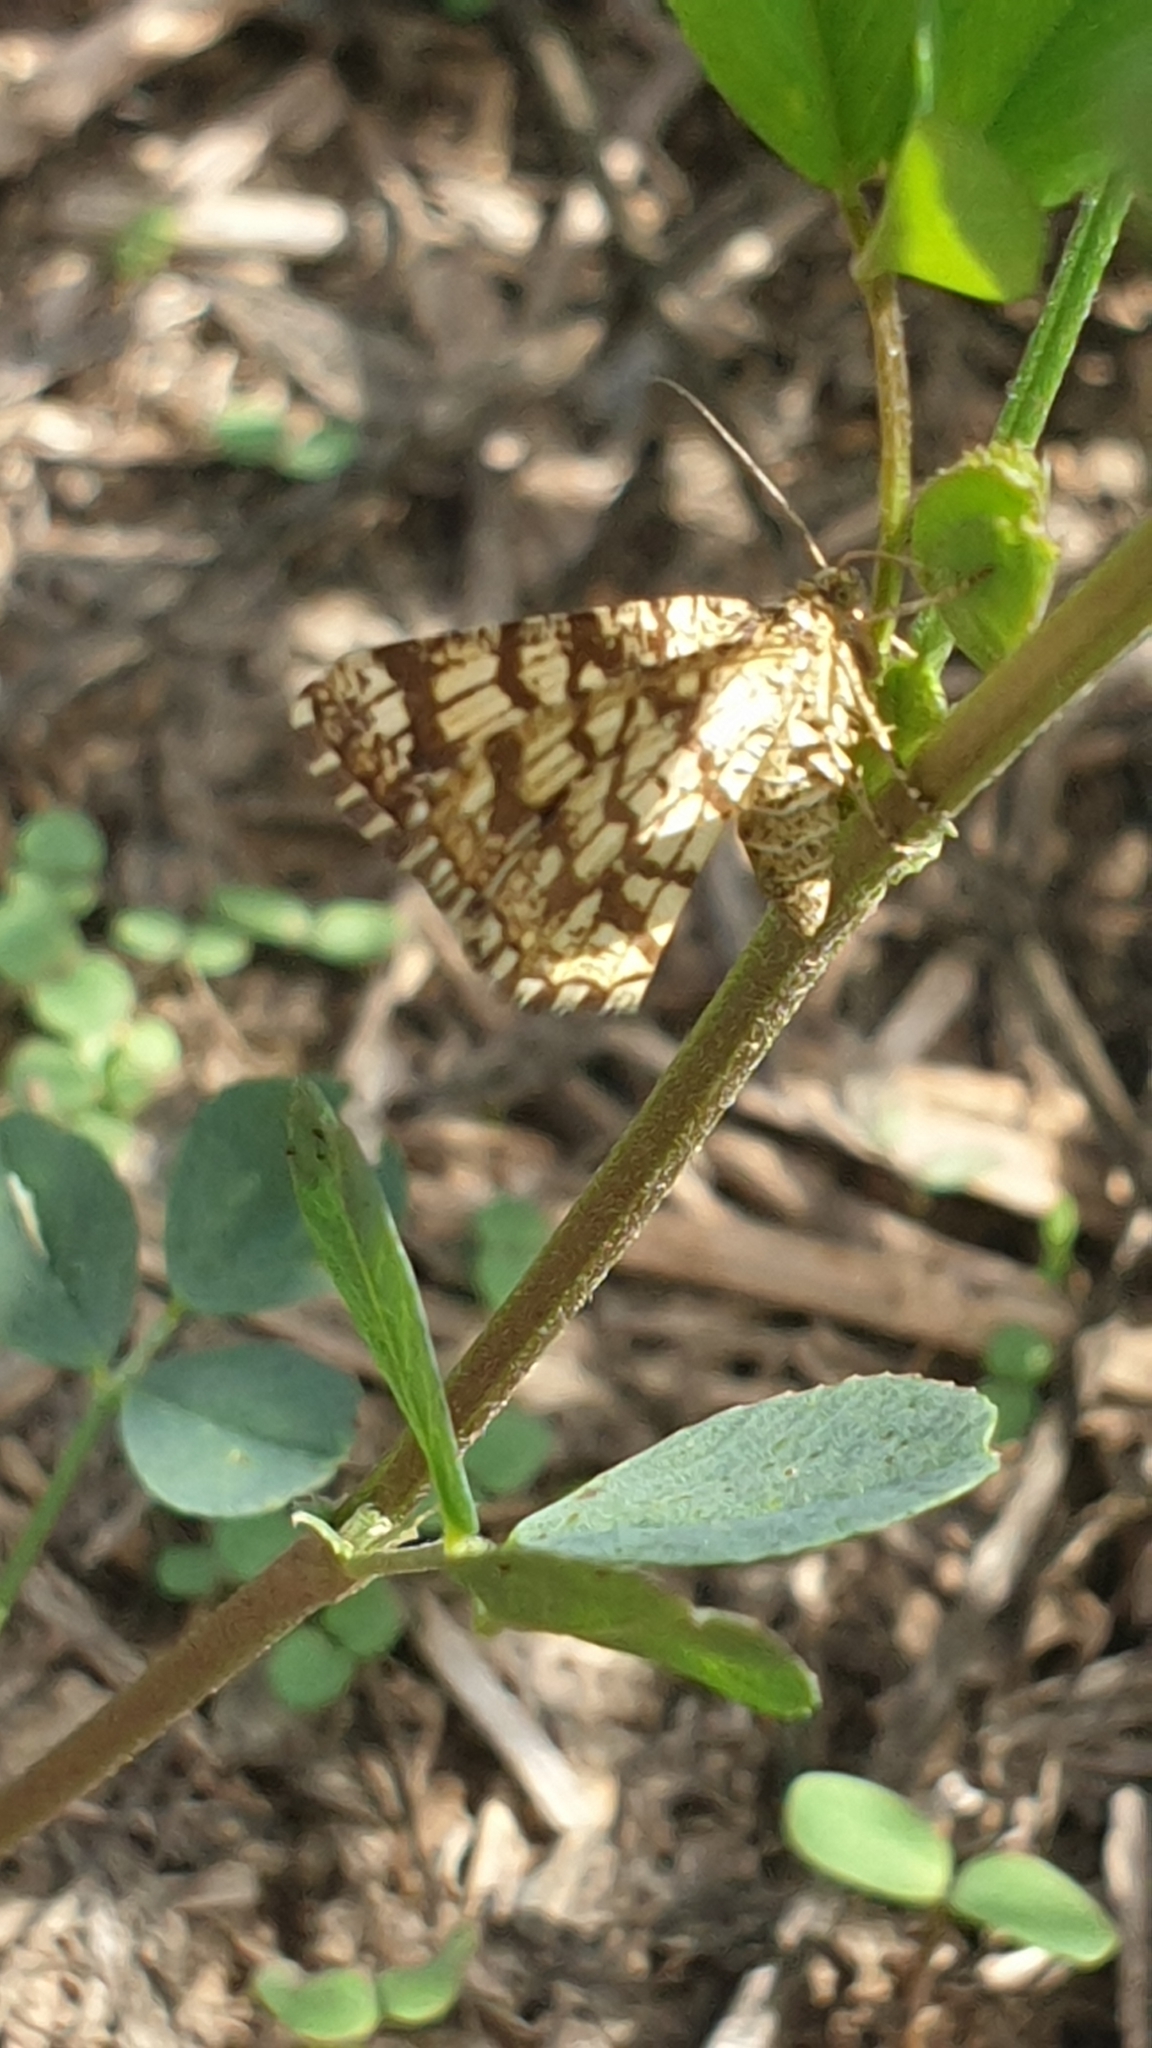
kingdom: Animalia
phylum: Arthropoda
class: Insecta
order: Lepidoptera
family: Geometridae
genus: Chiasmia
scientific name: Chiasmia clathrata
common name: Latticed heath
